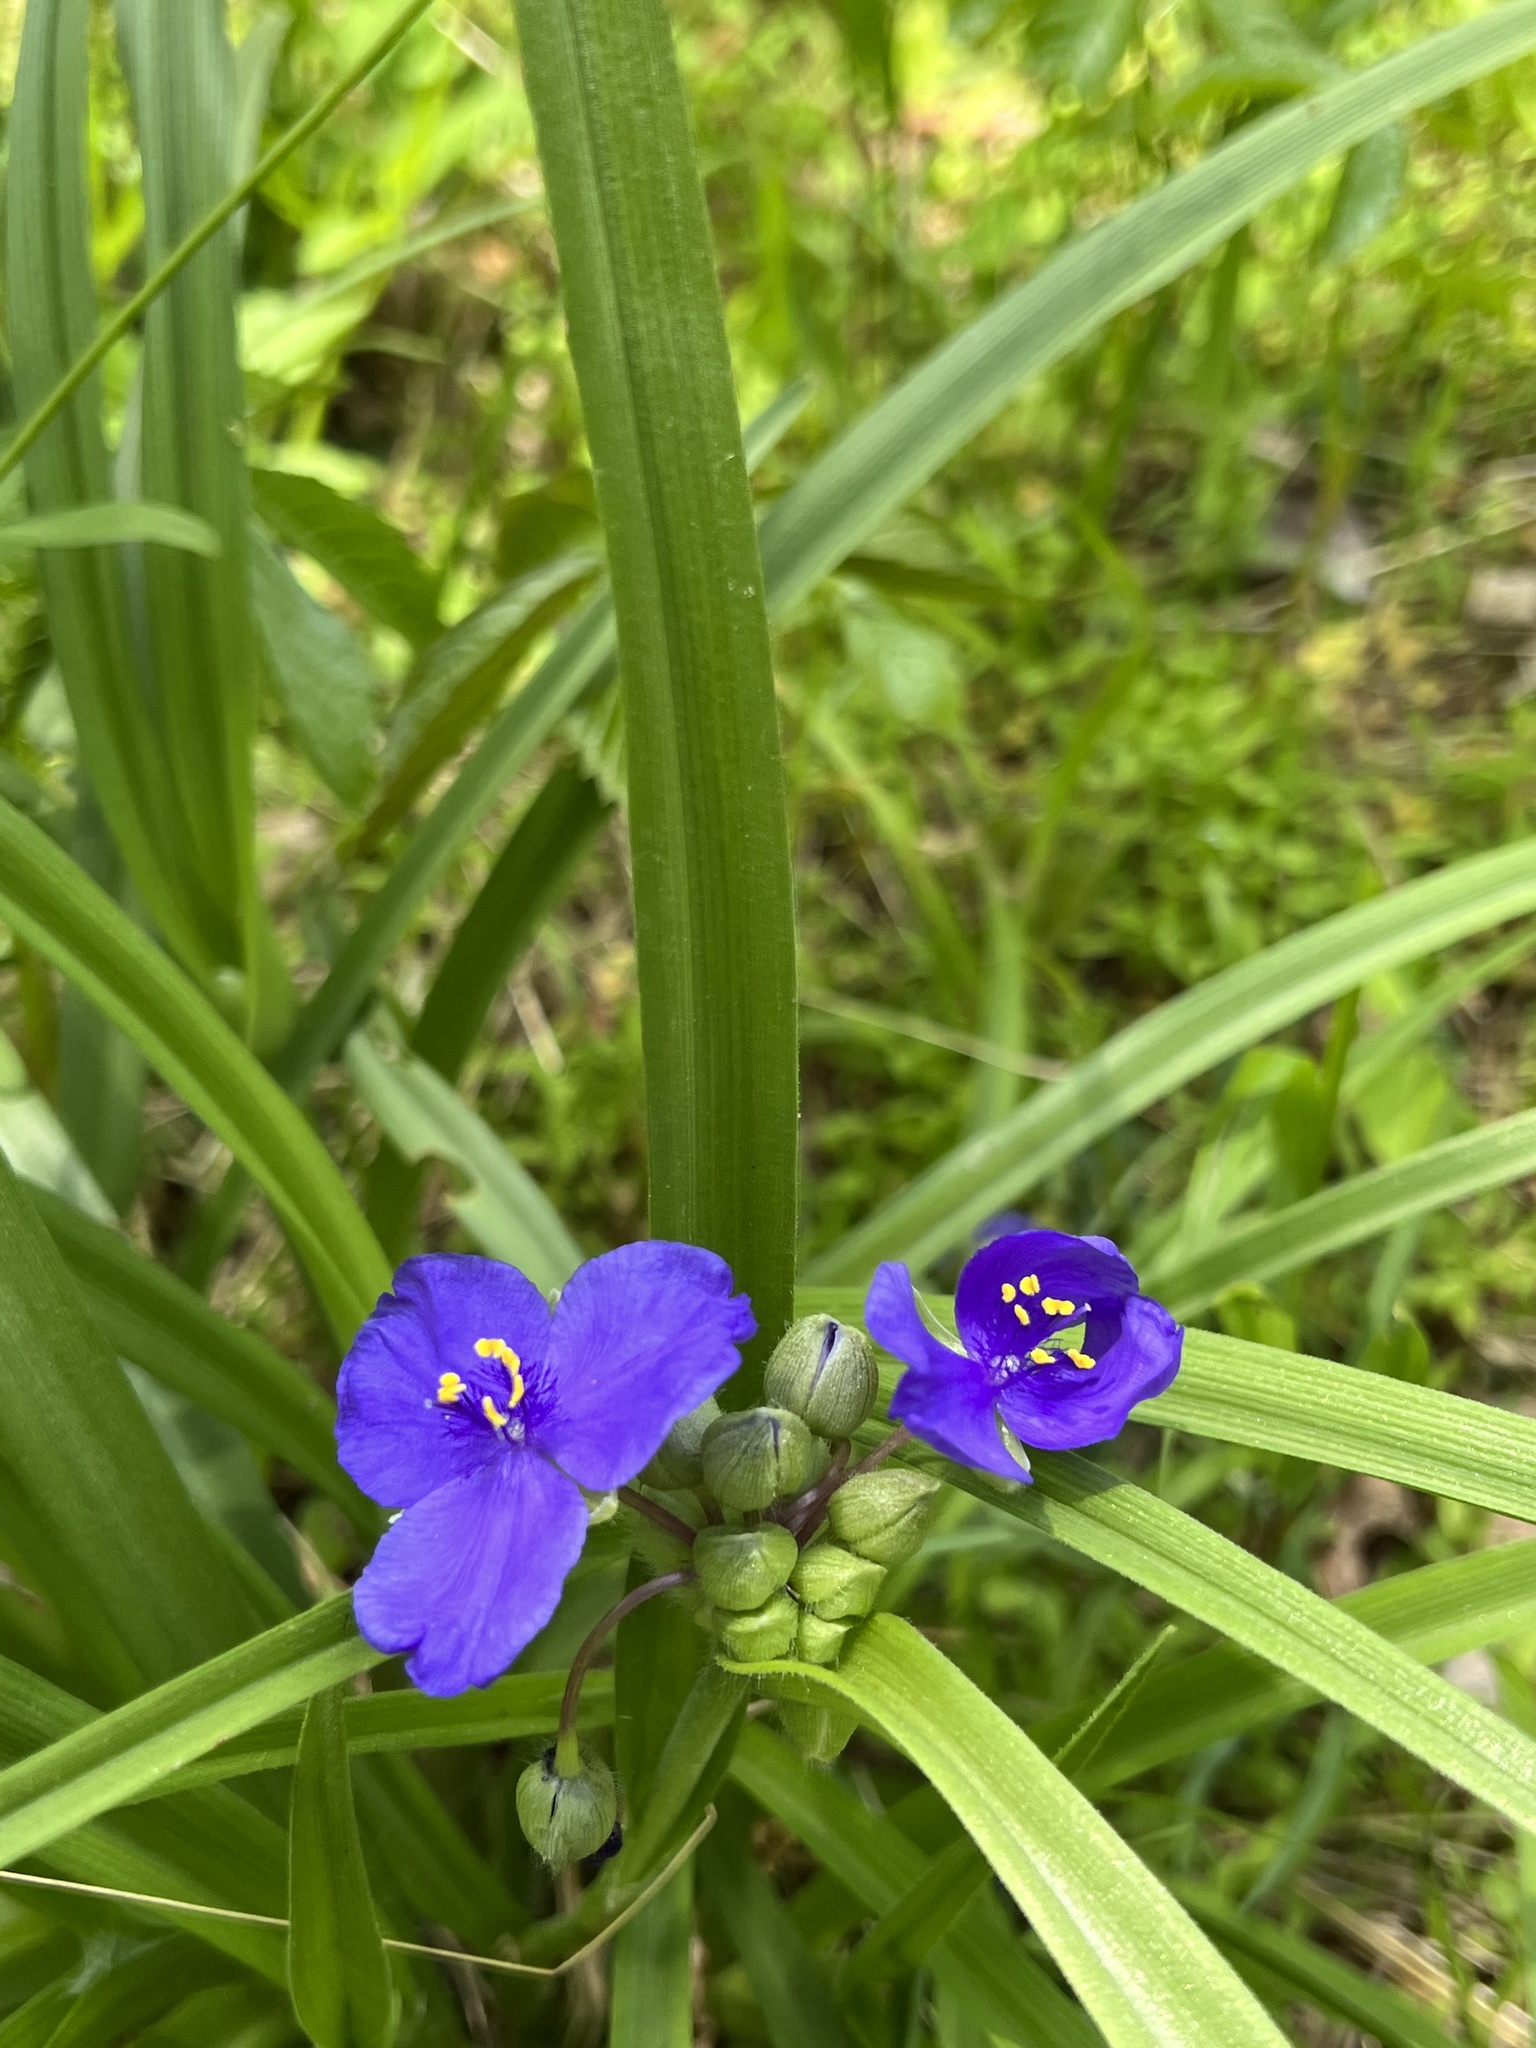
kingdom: Plantae
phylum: Tracheophyta
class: Liliopsida
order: Commelinales
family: Commelinaceae
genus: Tradescantia
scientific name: Tradescantia virginiana
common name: Spiderwort
